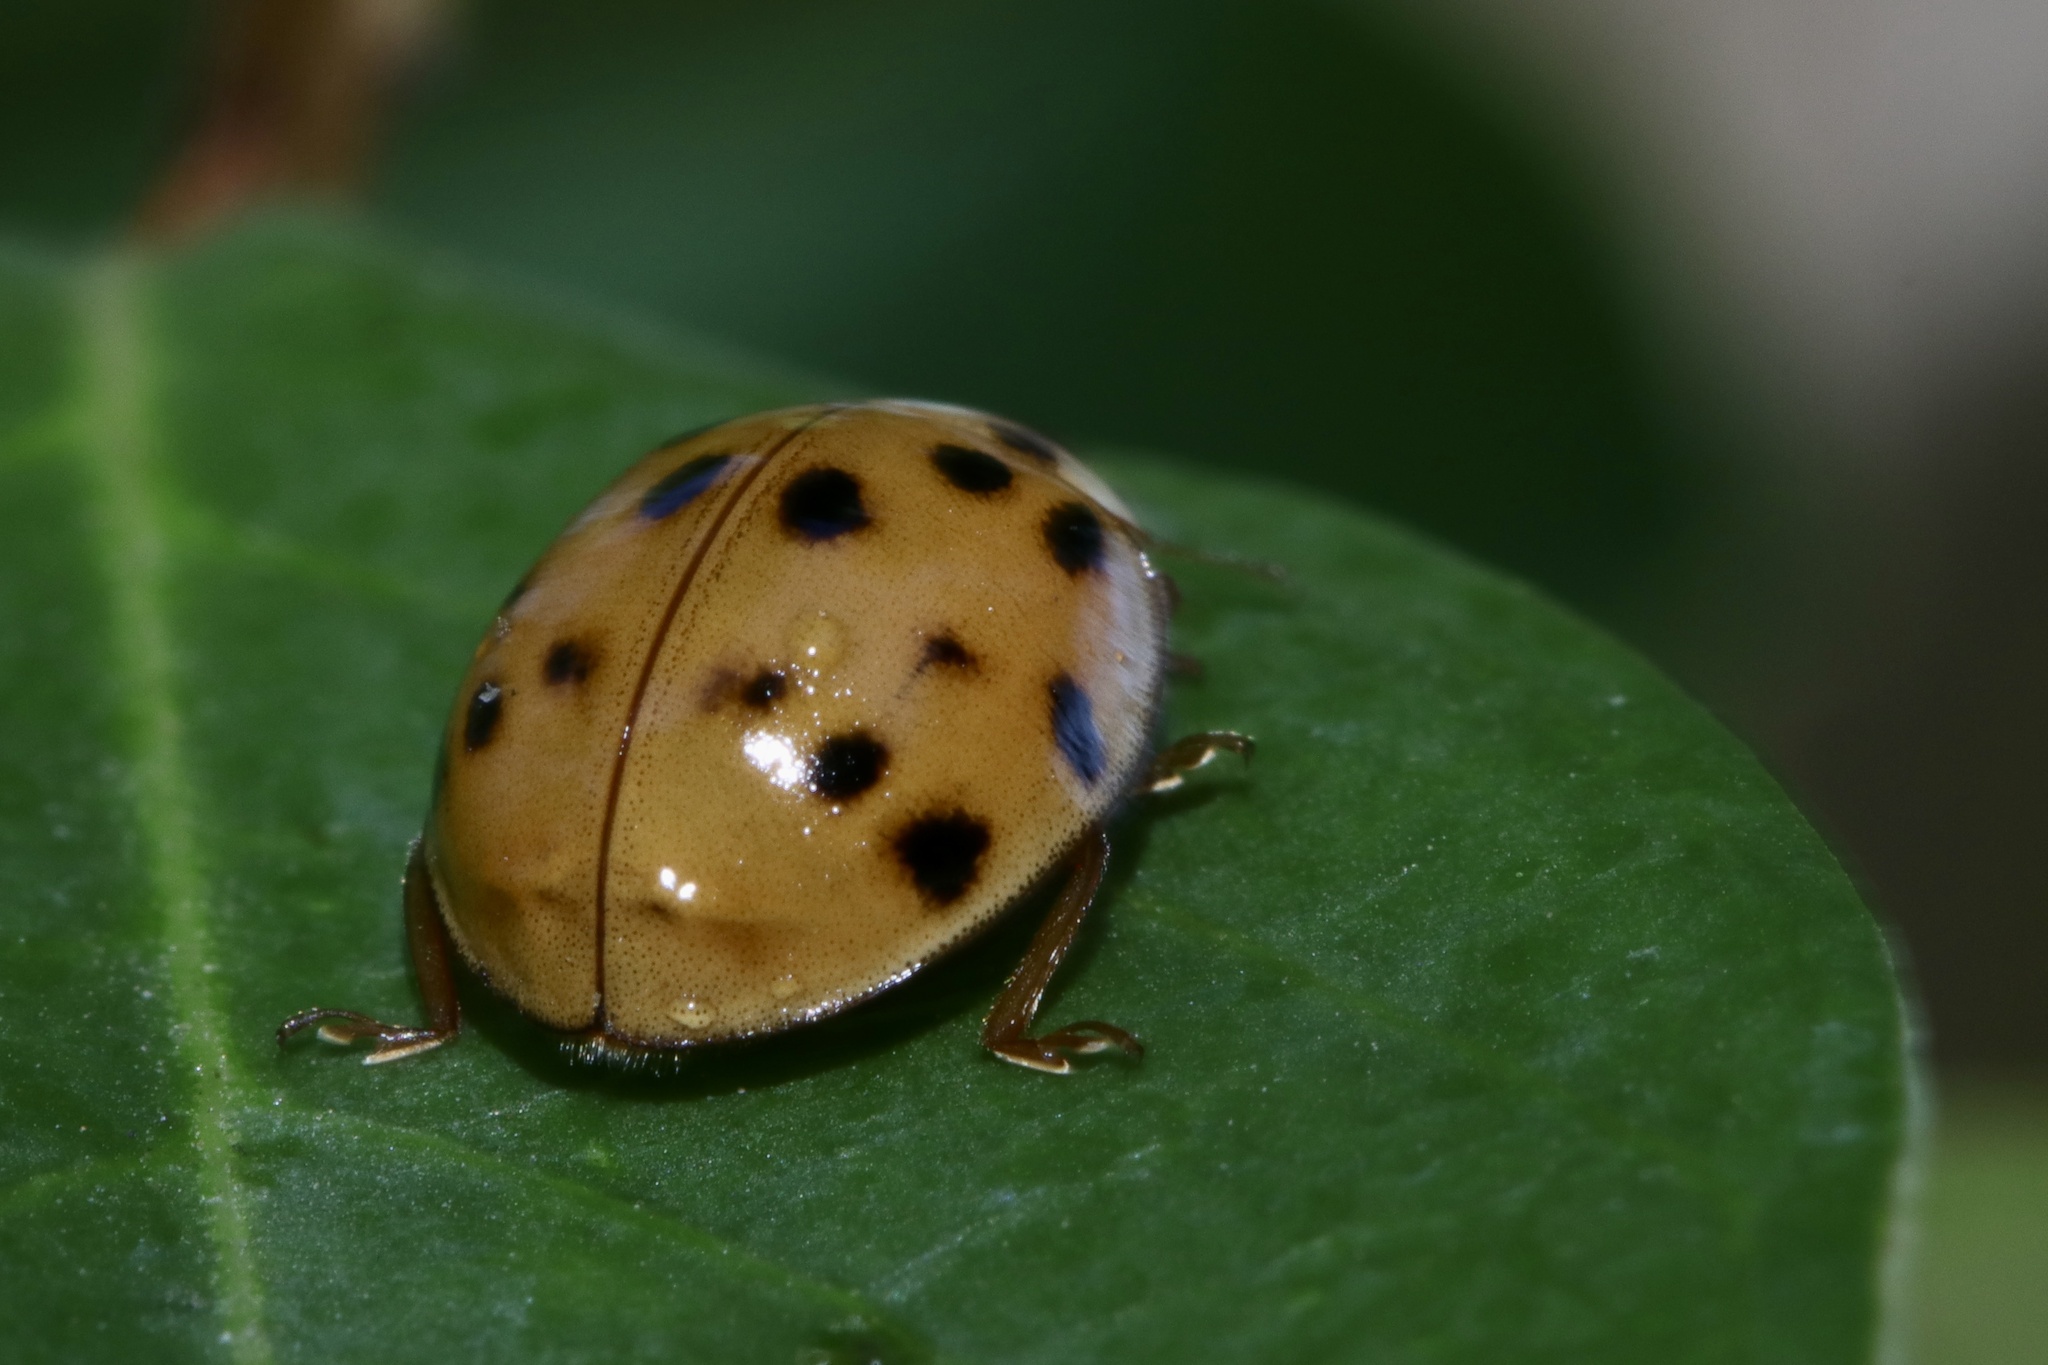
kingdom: Animalia
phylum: Arthropoda
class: Insecta
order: Coleoptera
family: Coccinellidae
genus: Harmonia
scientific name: Harmonia axyridis
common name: Harlequin ladybird
